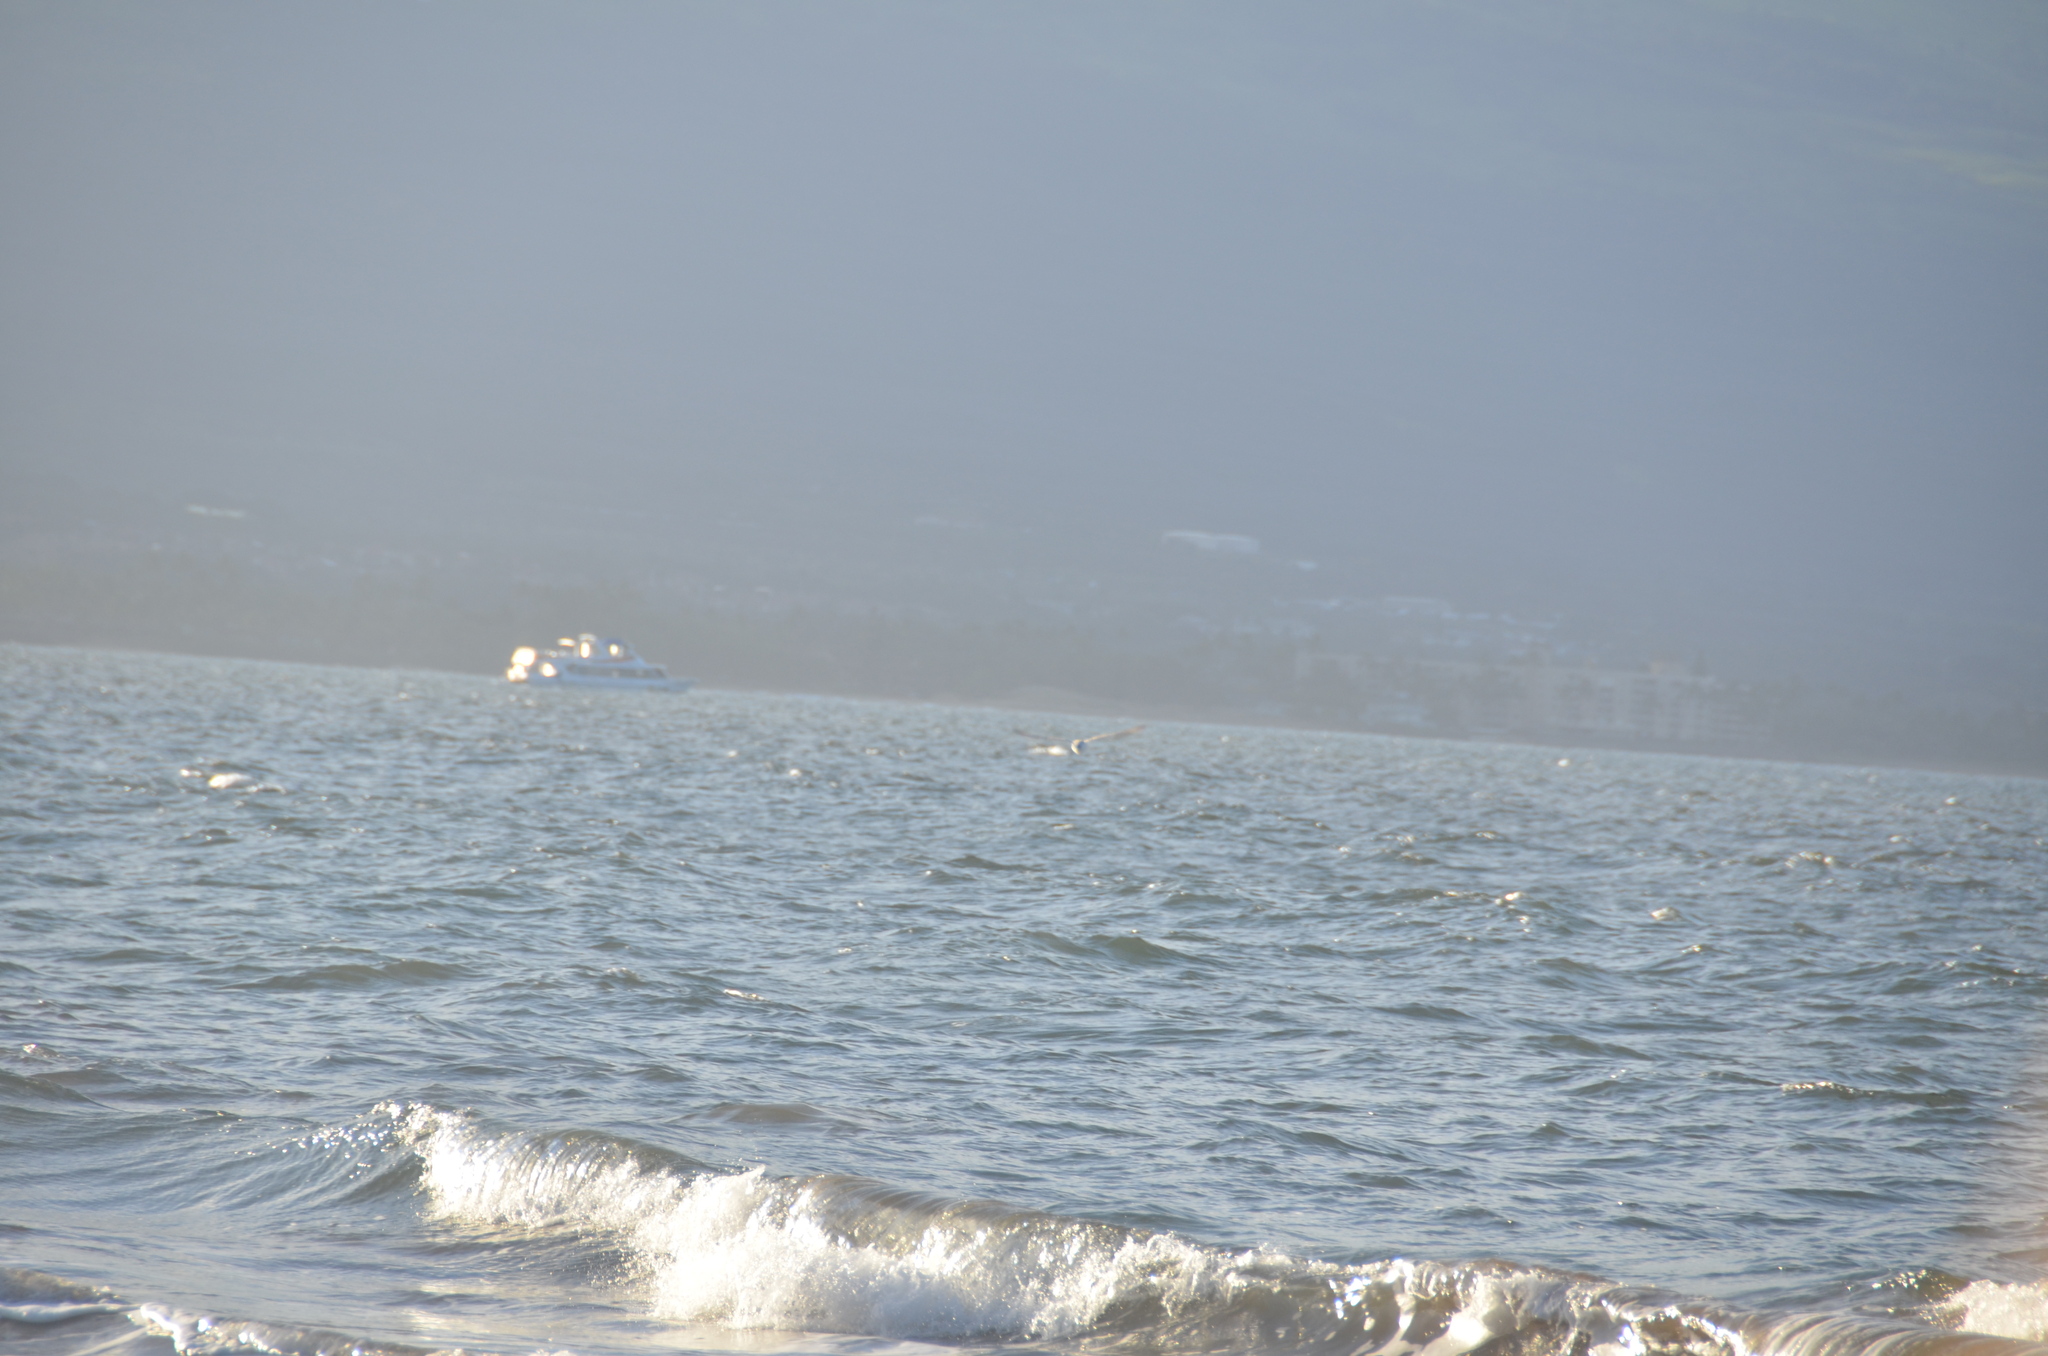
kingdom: Animalia
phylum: Chordata
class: Aves
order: Charadriiformes
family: Scolopacidae
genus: Calidris
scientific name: Calidris alba
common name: Sanderling
